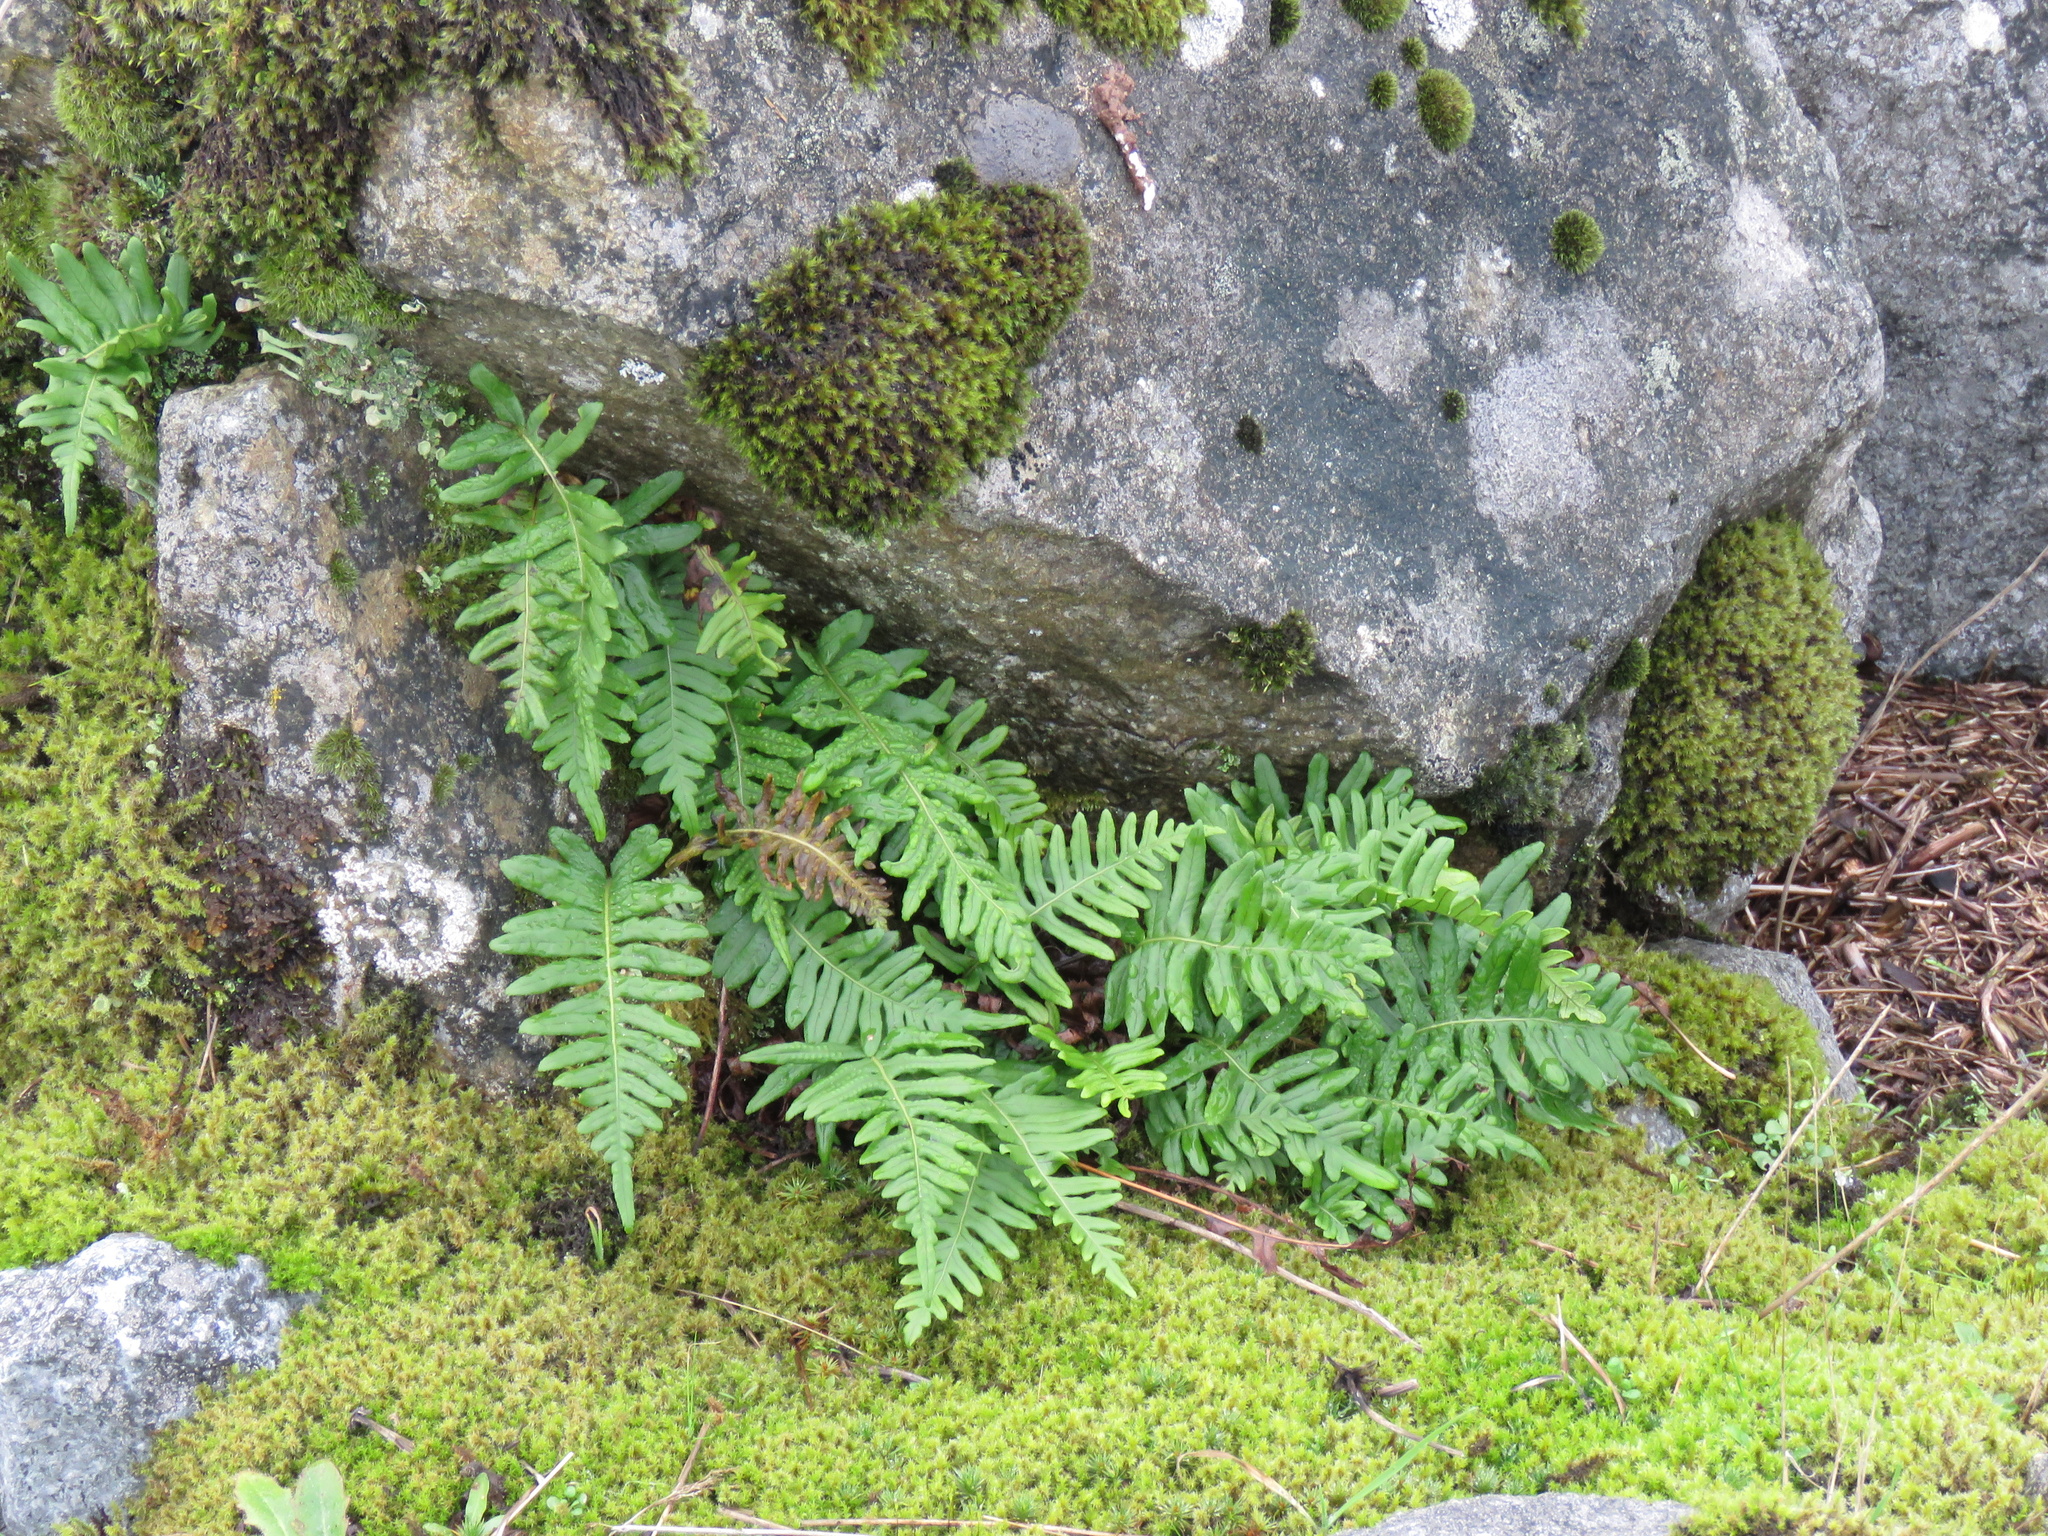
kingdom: Plantae
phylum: Tracheophyta
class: Polypodiopsida
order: Polypodiales
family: Polypodiaceae
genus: Polypodium
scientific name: Polypodium glycyrrhiza
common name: Licorice fern
